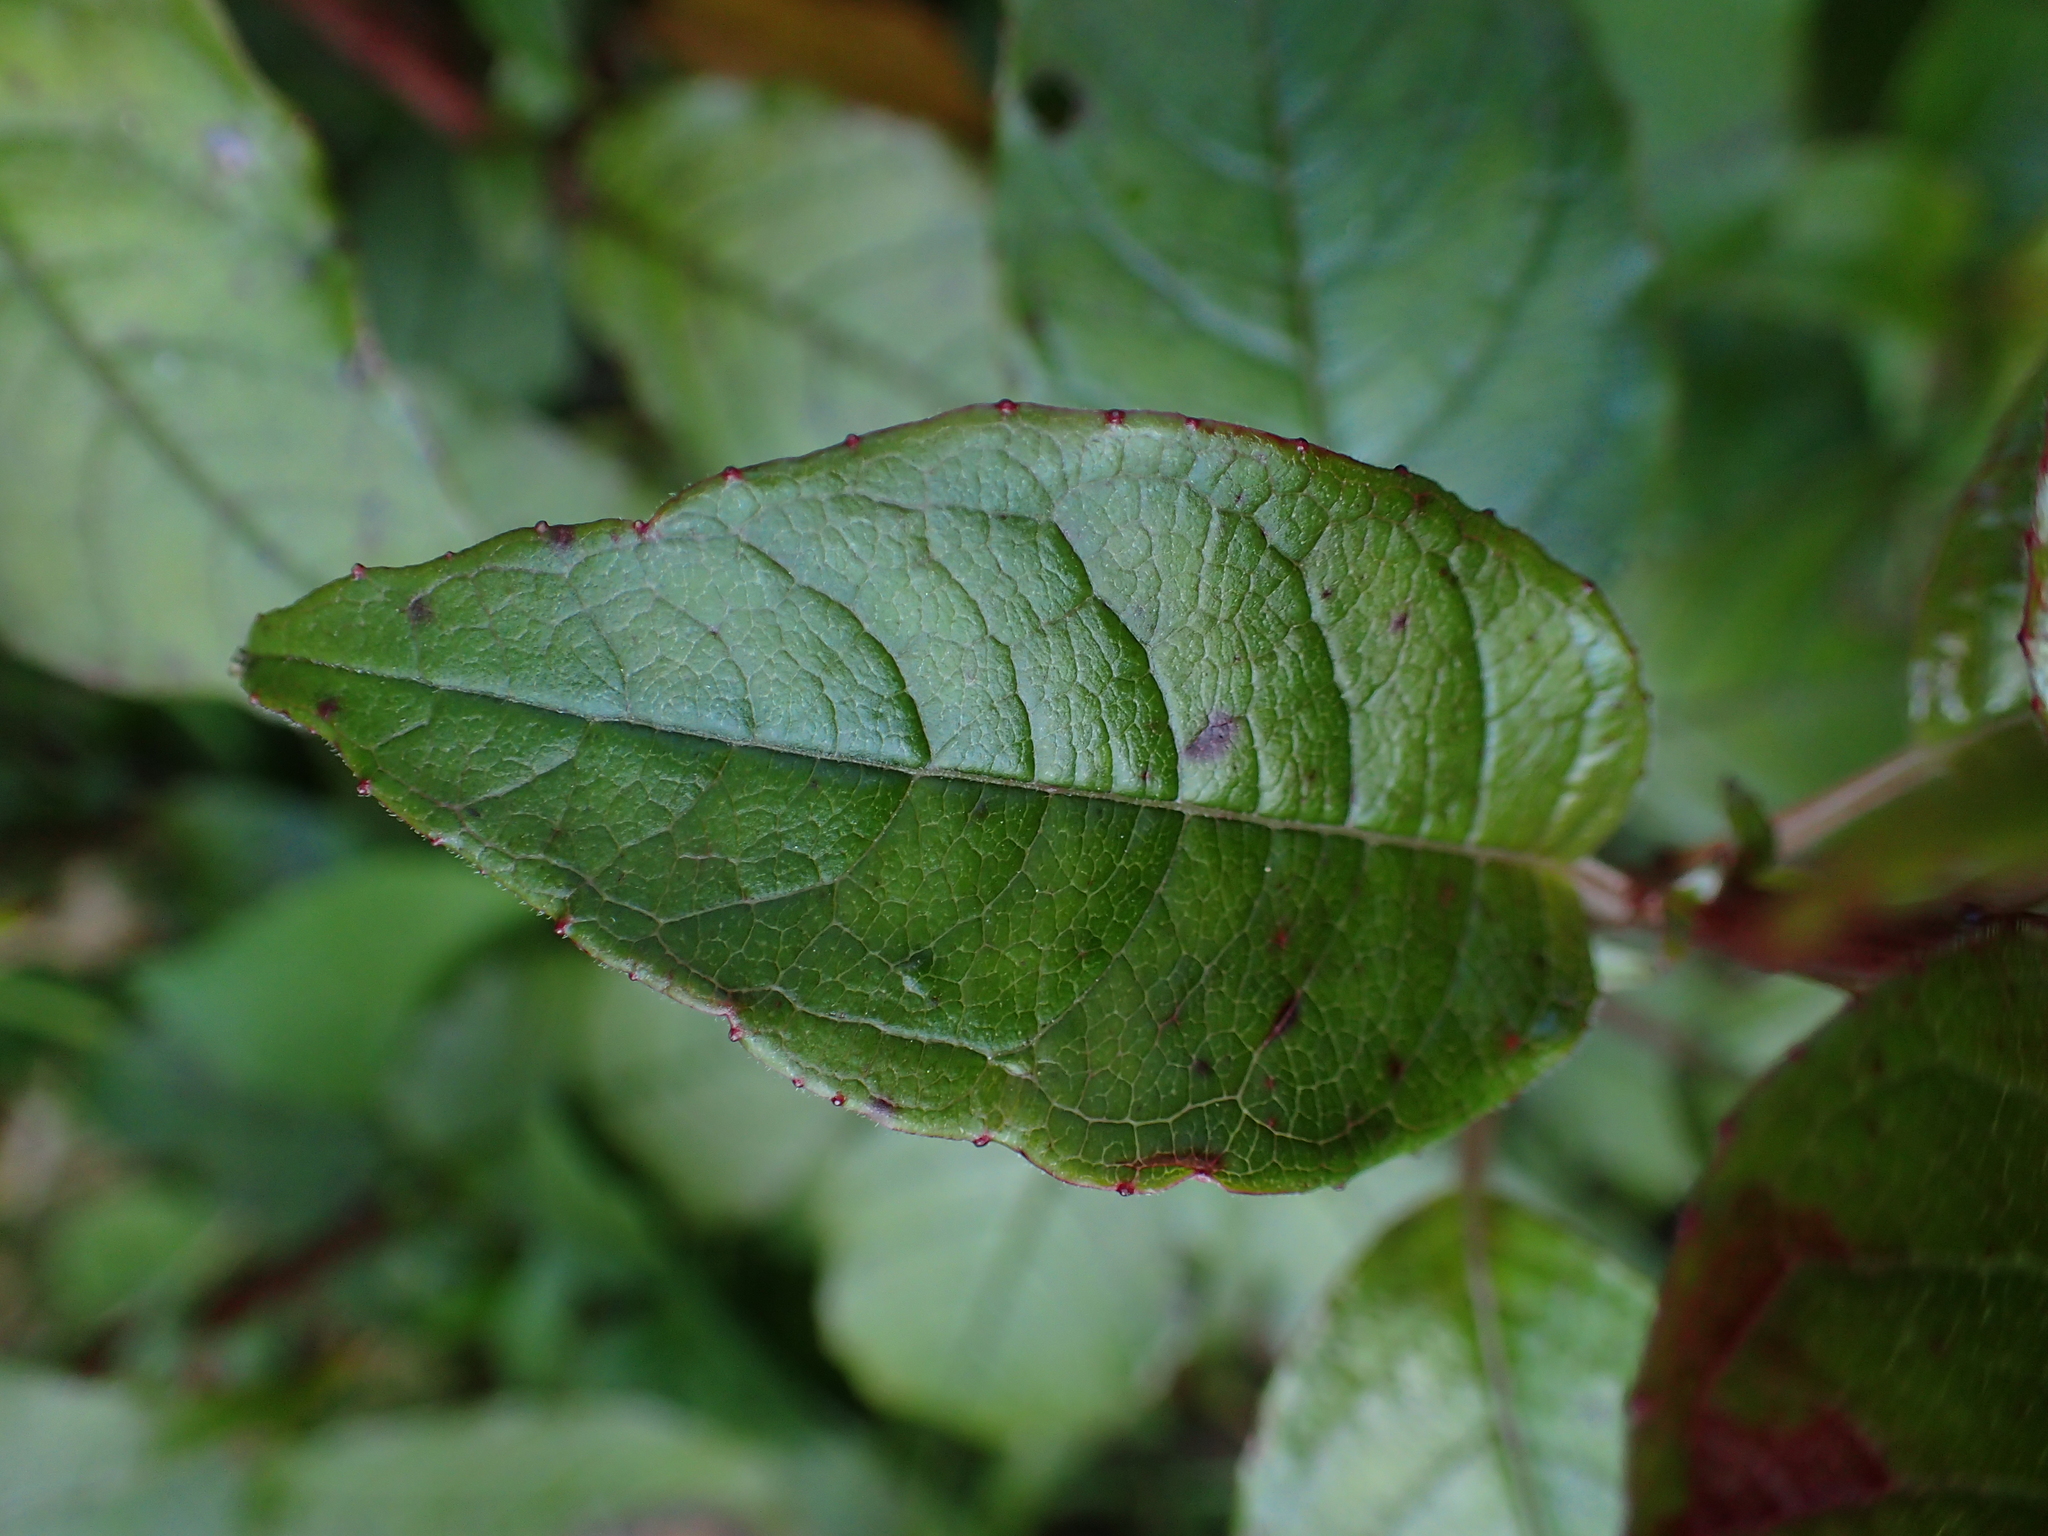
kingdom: Plantae
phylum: Tracheophyta
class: Magnoliopsida
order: Myrtales
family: Onagraceae
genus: Fuchsia
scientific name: Fuchsia excorticata
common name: Tree fuchsia
